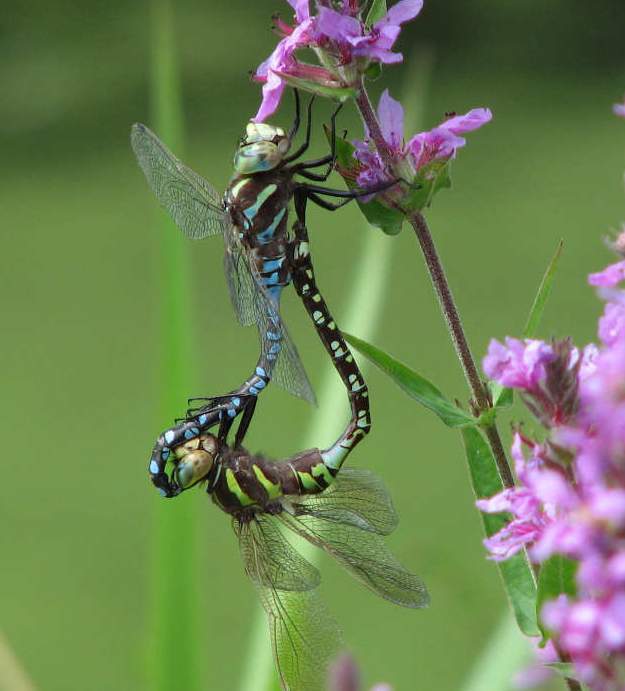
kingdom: Animalia
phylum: Arthropoda
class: Insecta
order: Odonata
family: Aeshnidae
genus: Aeshna
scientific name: Aeshna constricta
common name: Lance-tipped darner
